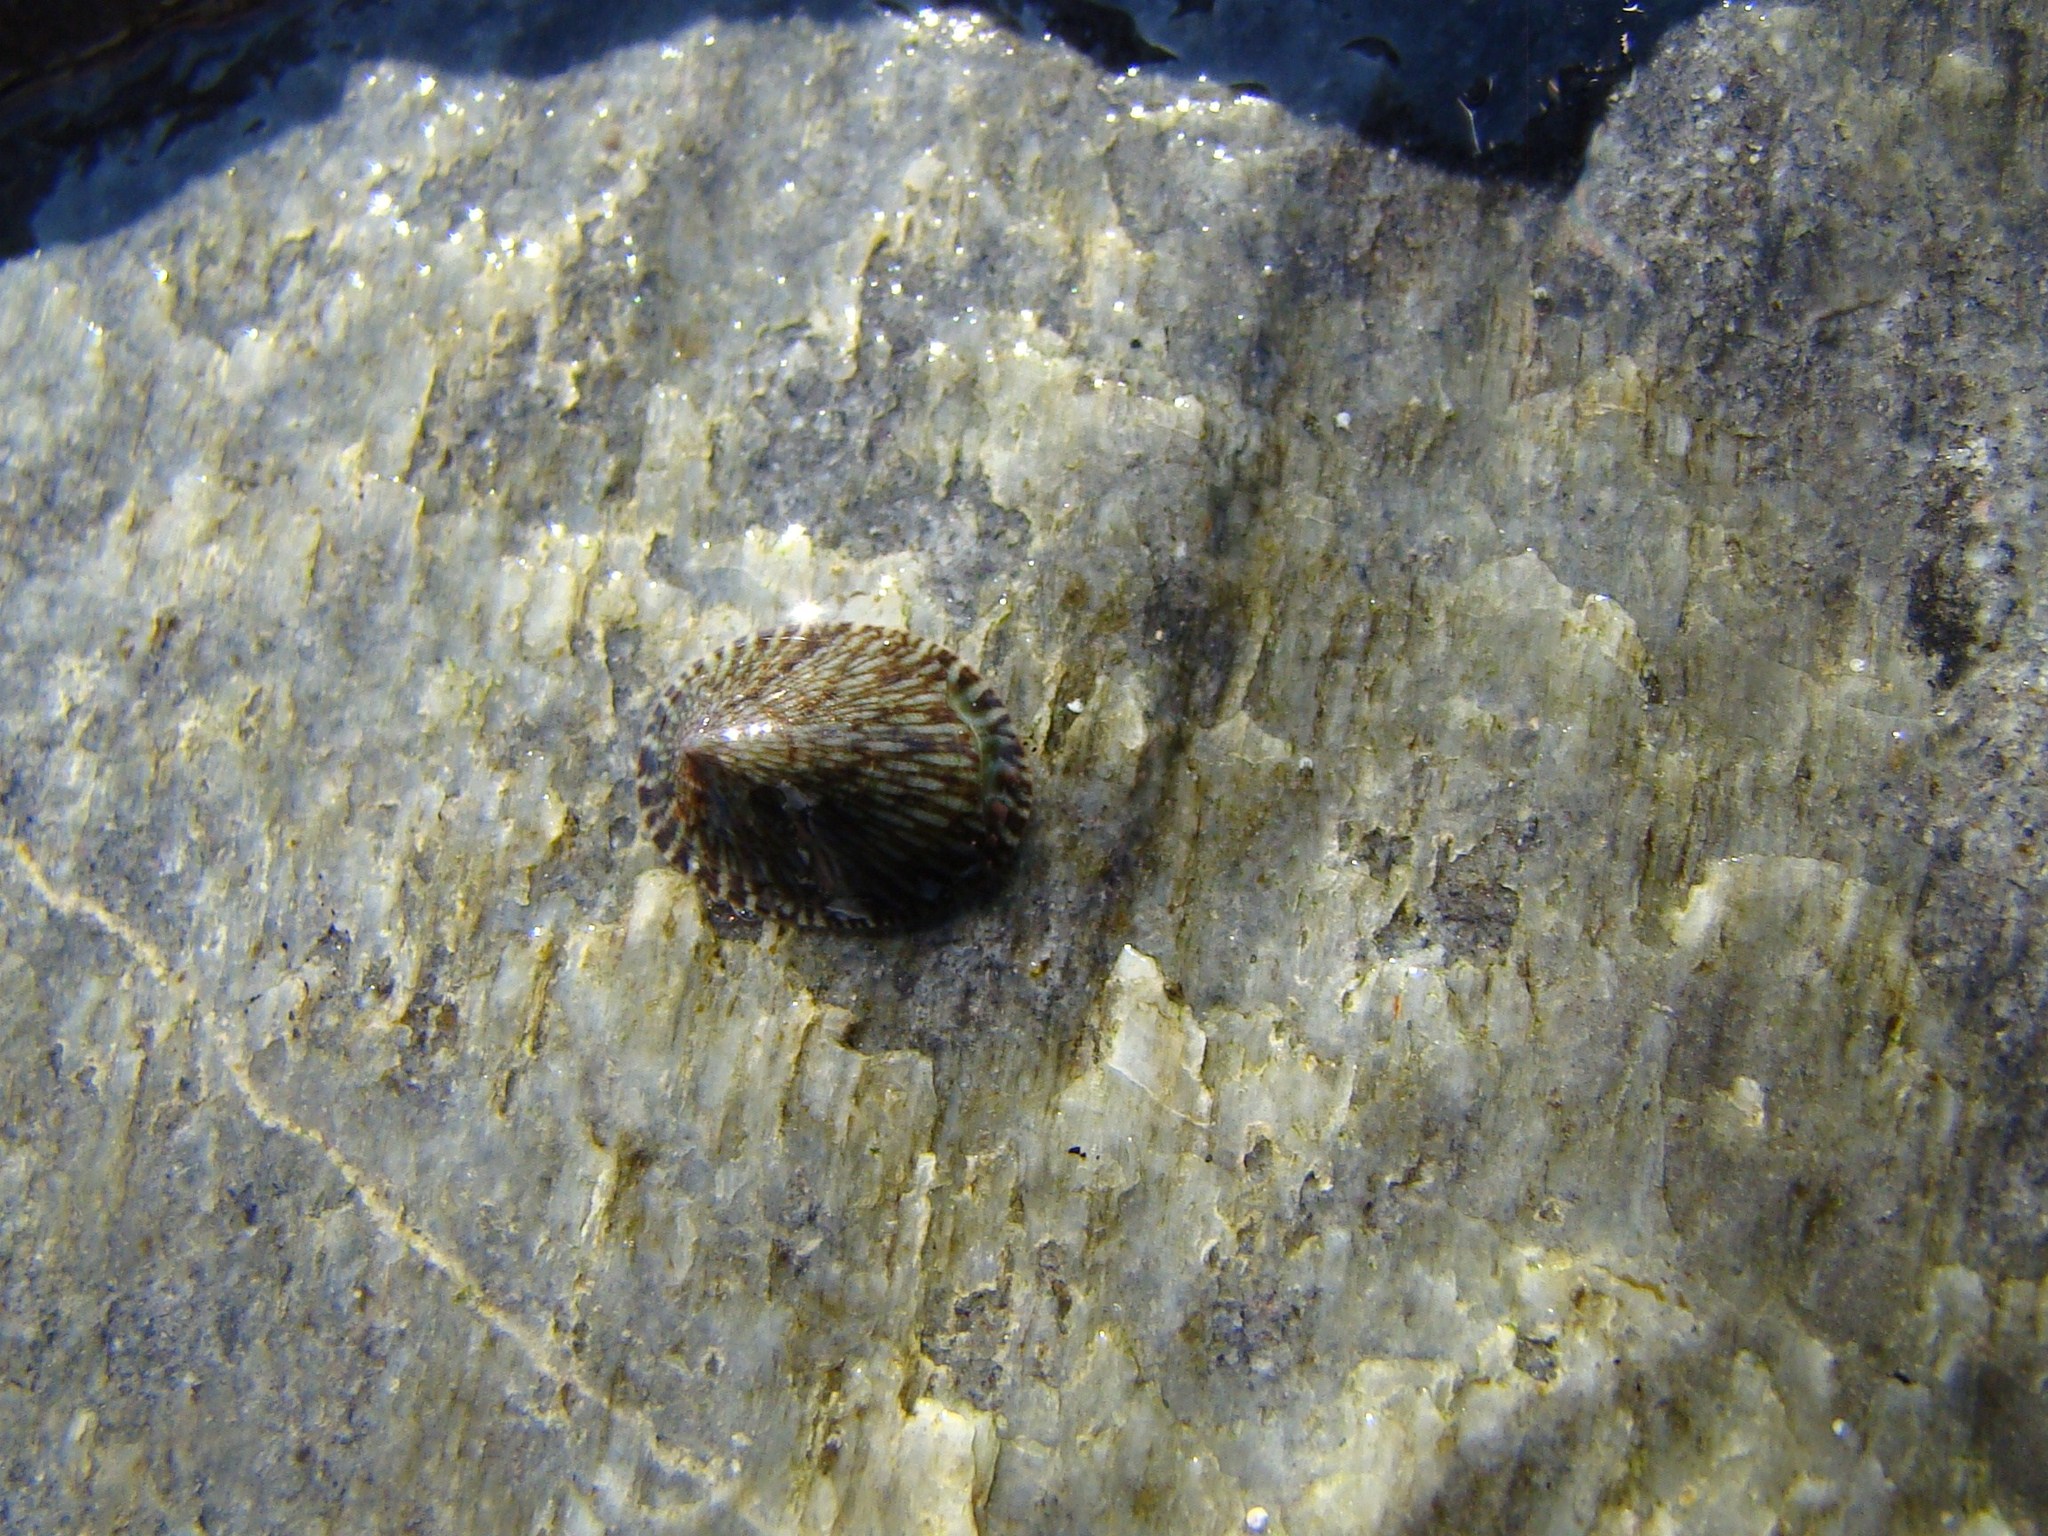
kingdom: Animalia
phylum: Mollusca
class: Gastropoda
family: Lottiidae
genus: Notoacmea
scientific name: Notoacmea
